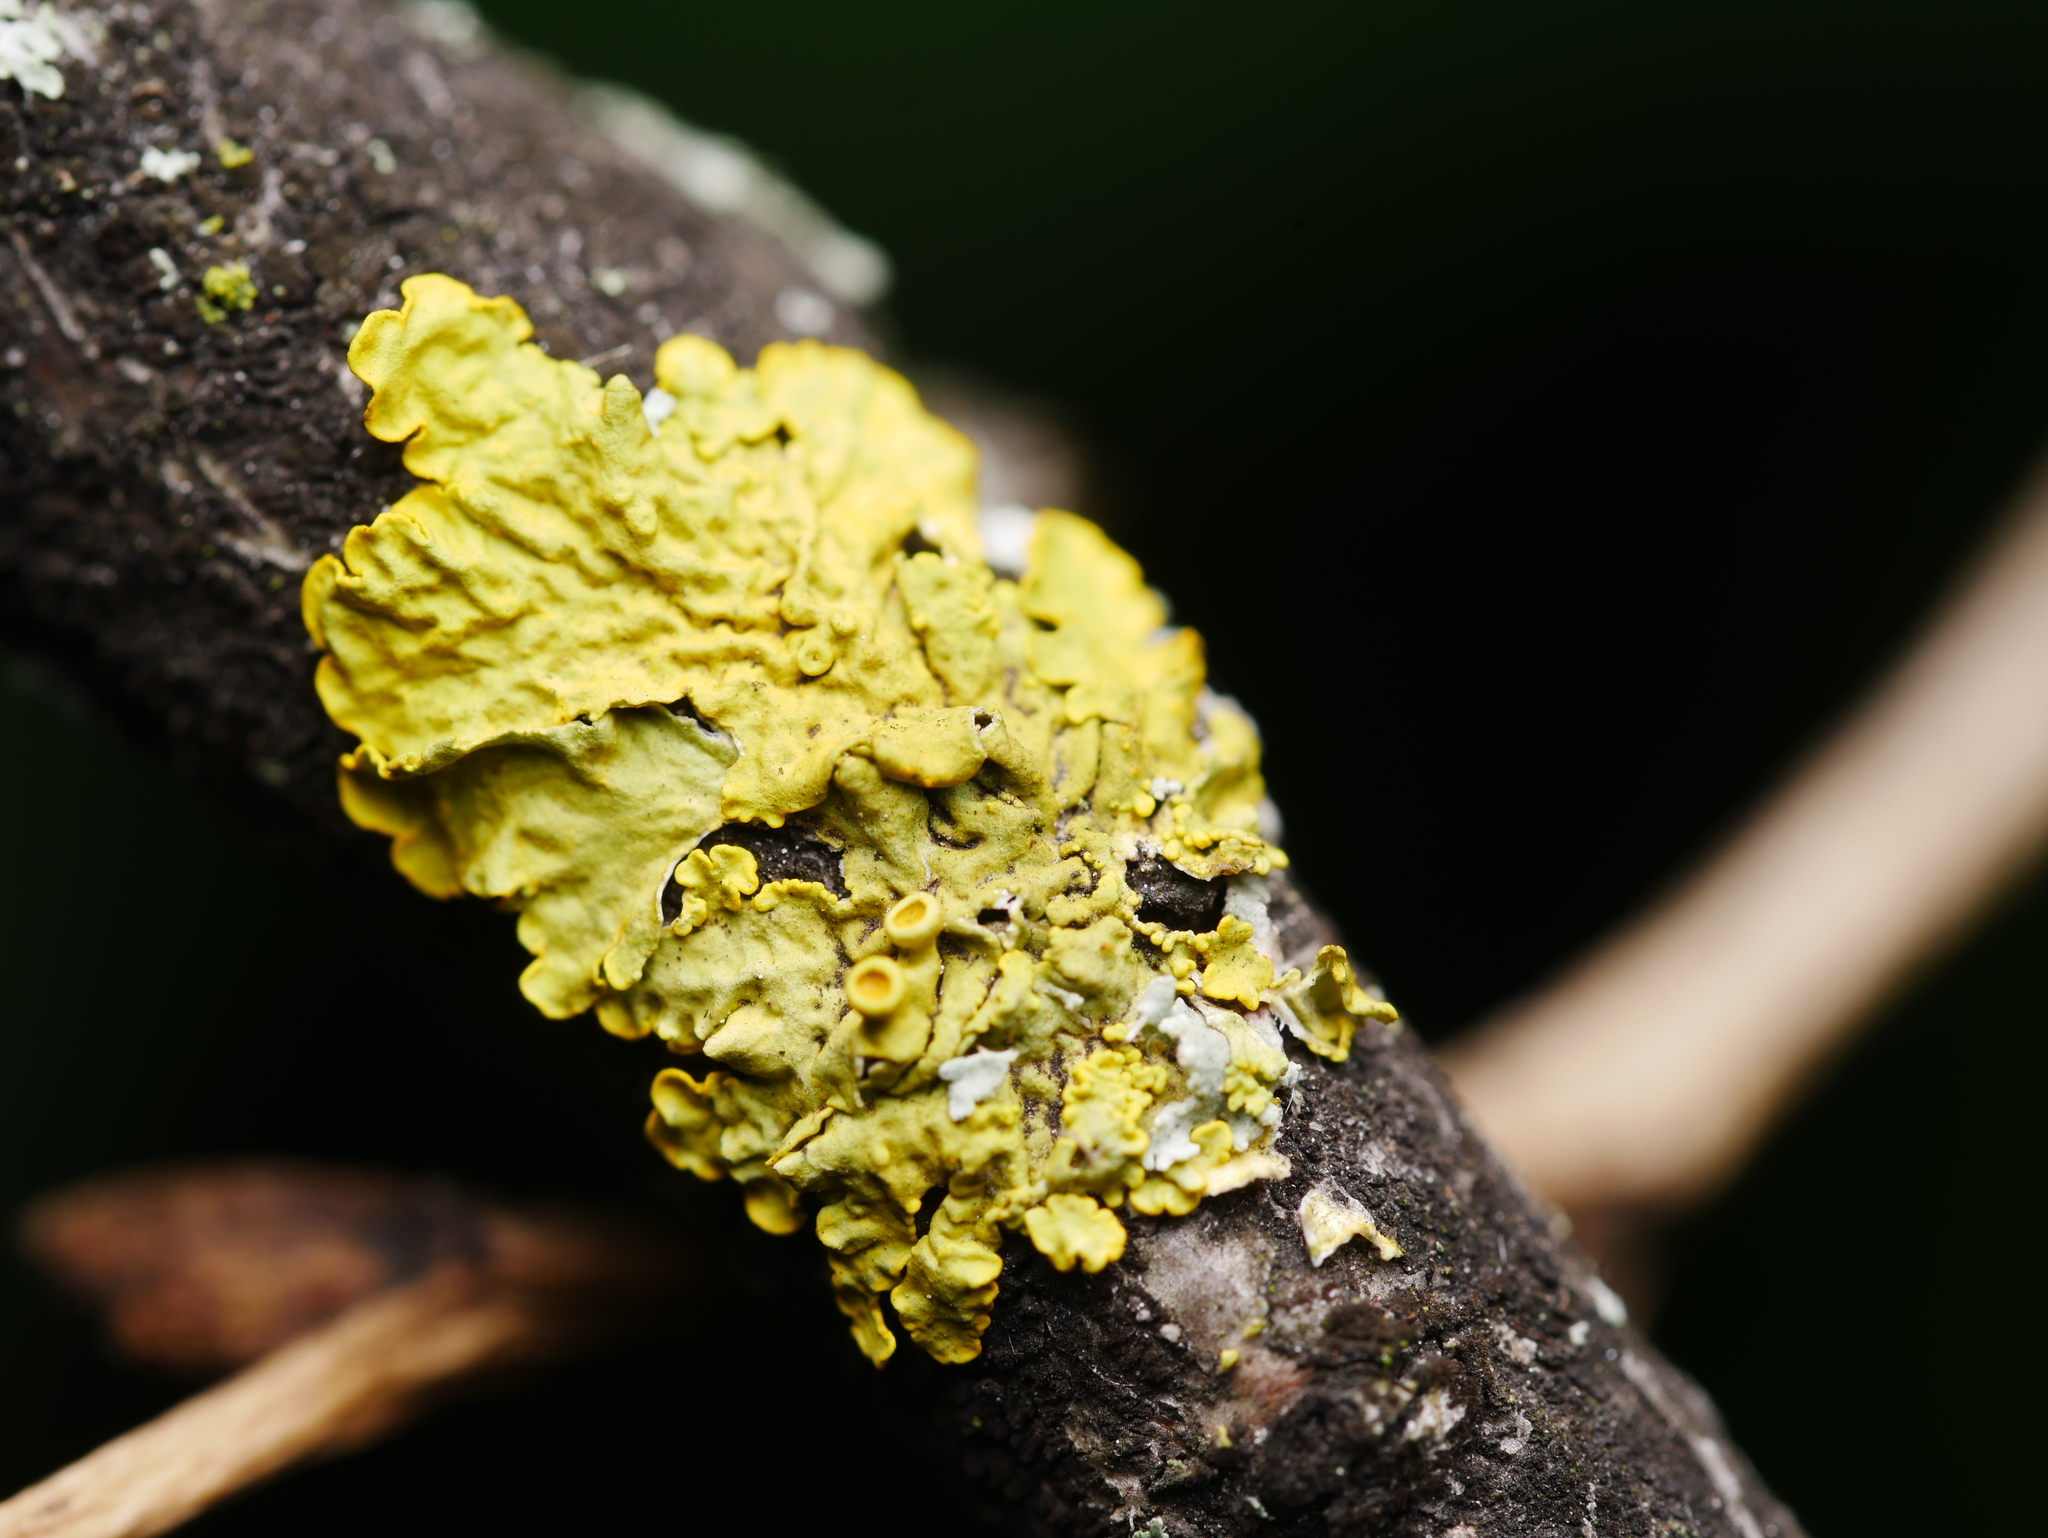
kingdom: Fungi
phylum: Ascomycota
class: Lecanoromycetes
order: Teloschistales
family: Teloschistaceae
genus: Xanthoria
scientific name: Xanthoria parietina
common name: Common orange lichen
